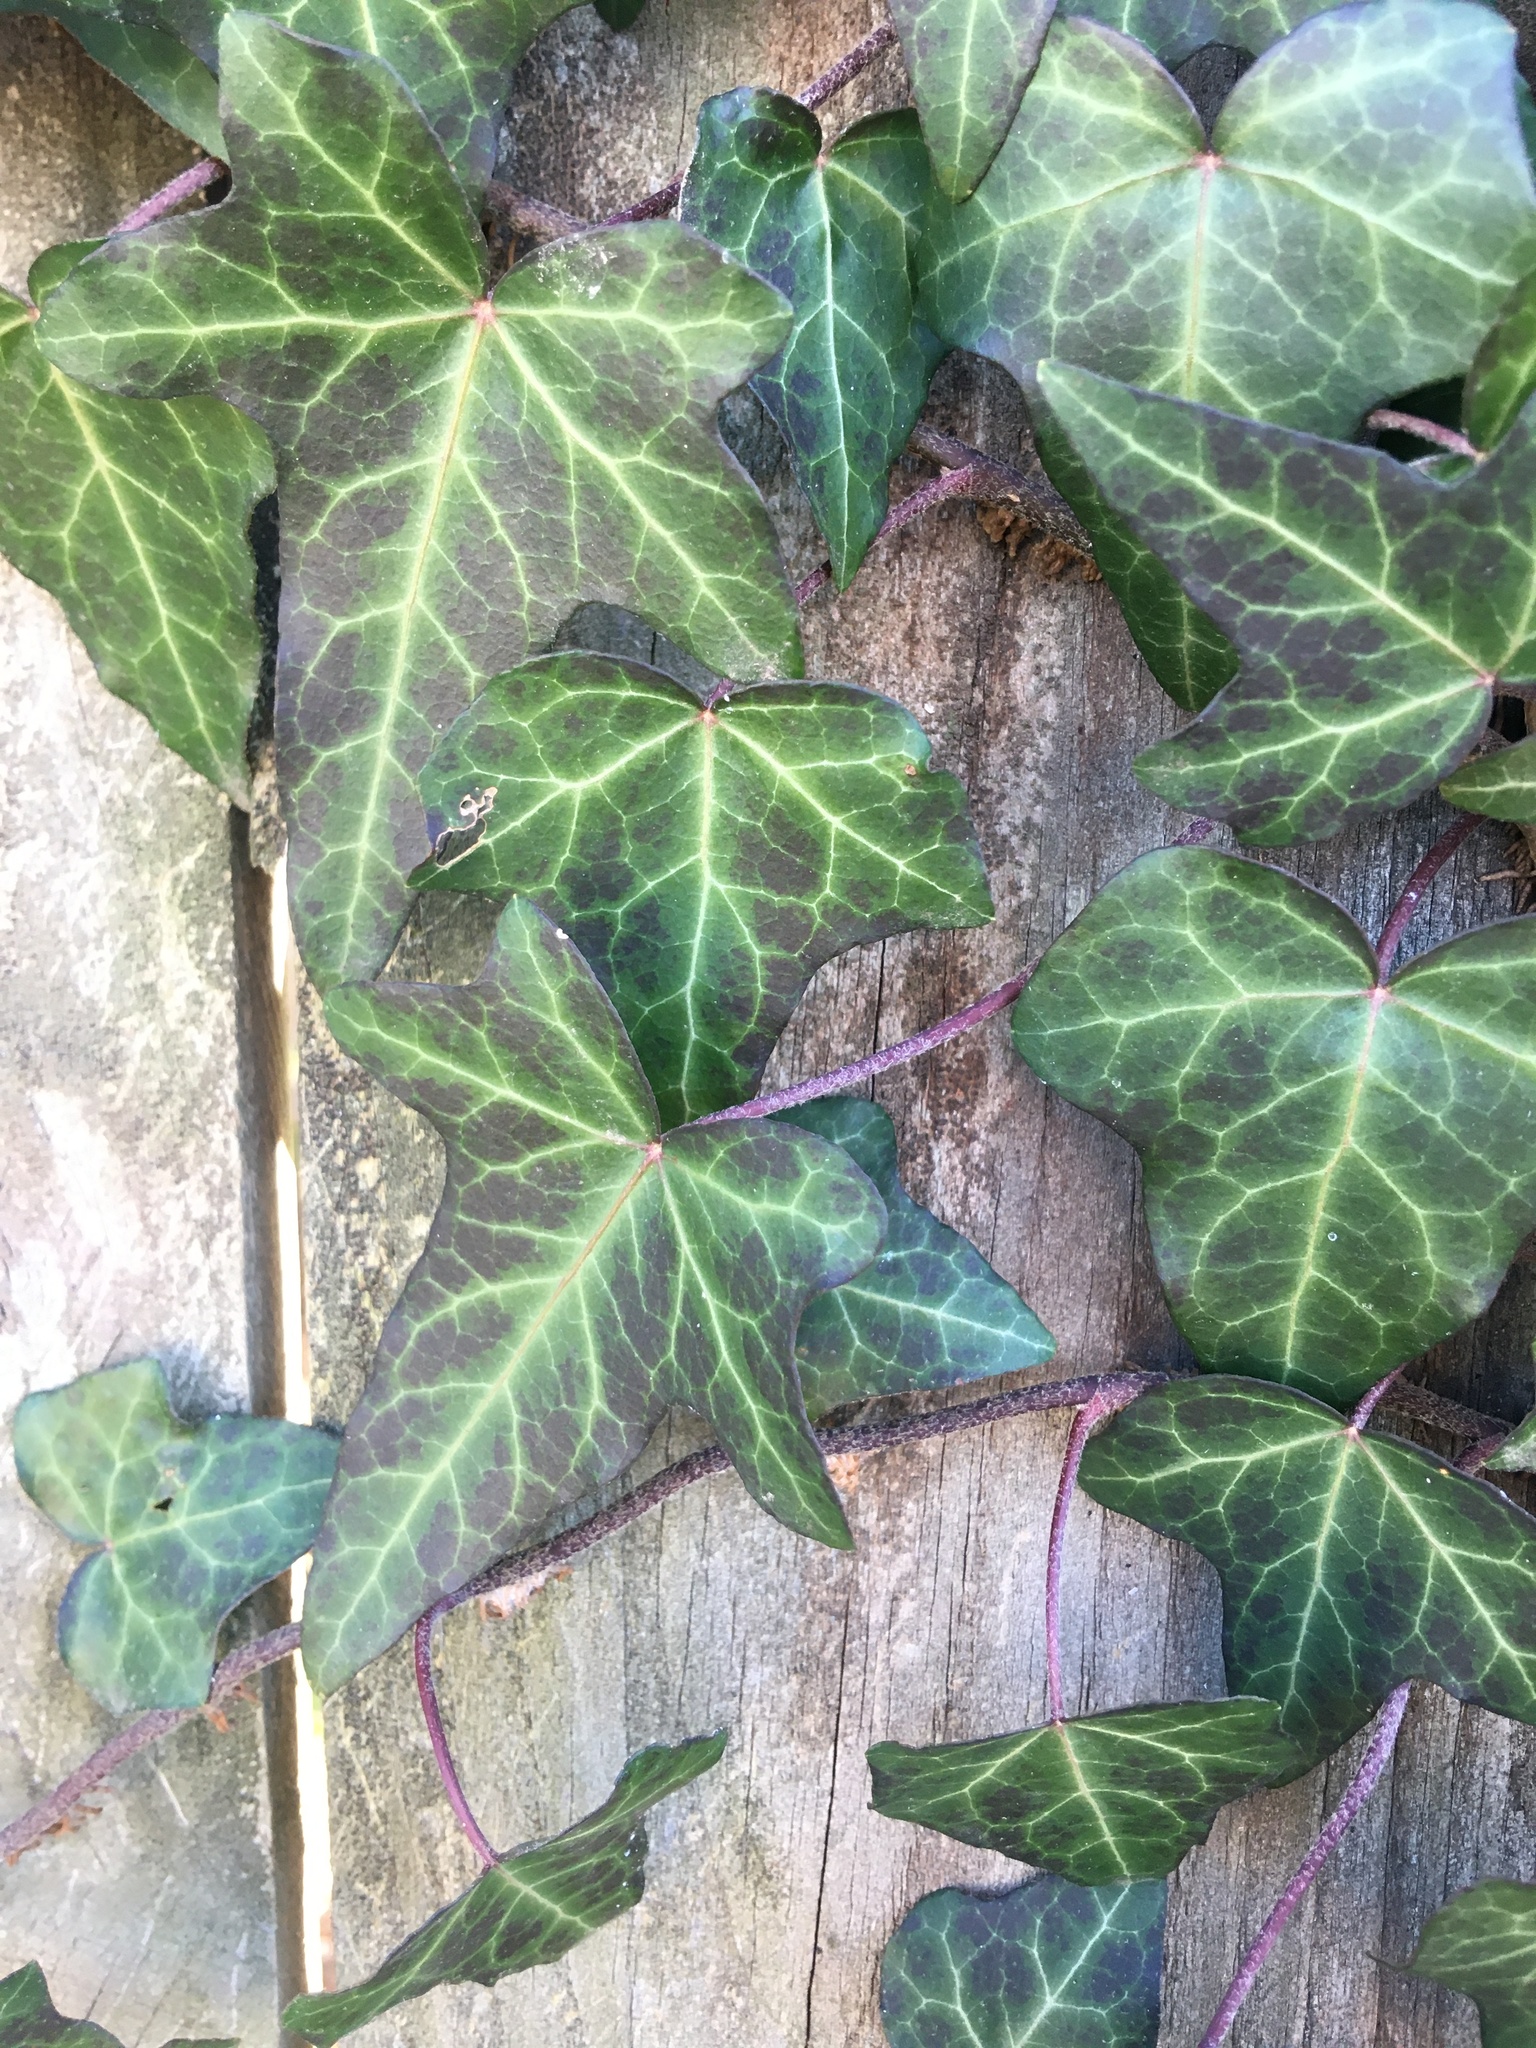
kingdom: Plantae
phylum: Tracheophyta
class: Magnoliopsida
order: Apiales
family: Araliaceae
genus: Hedera
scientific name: Hedera helix
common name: Ivy
